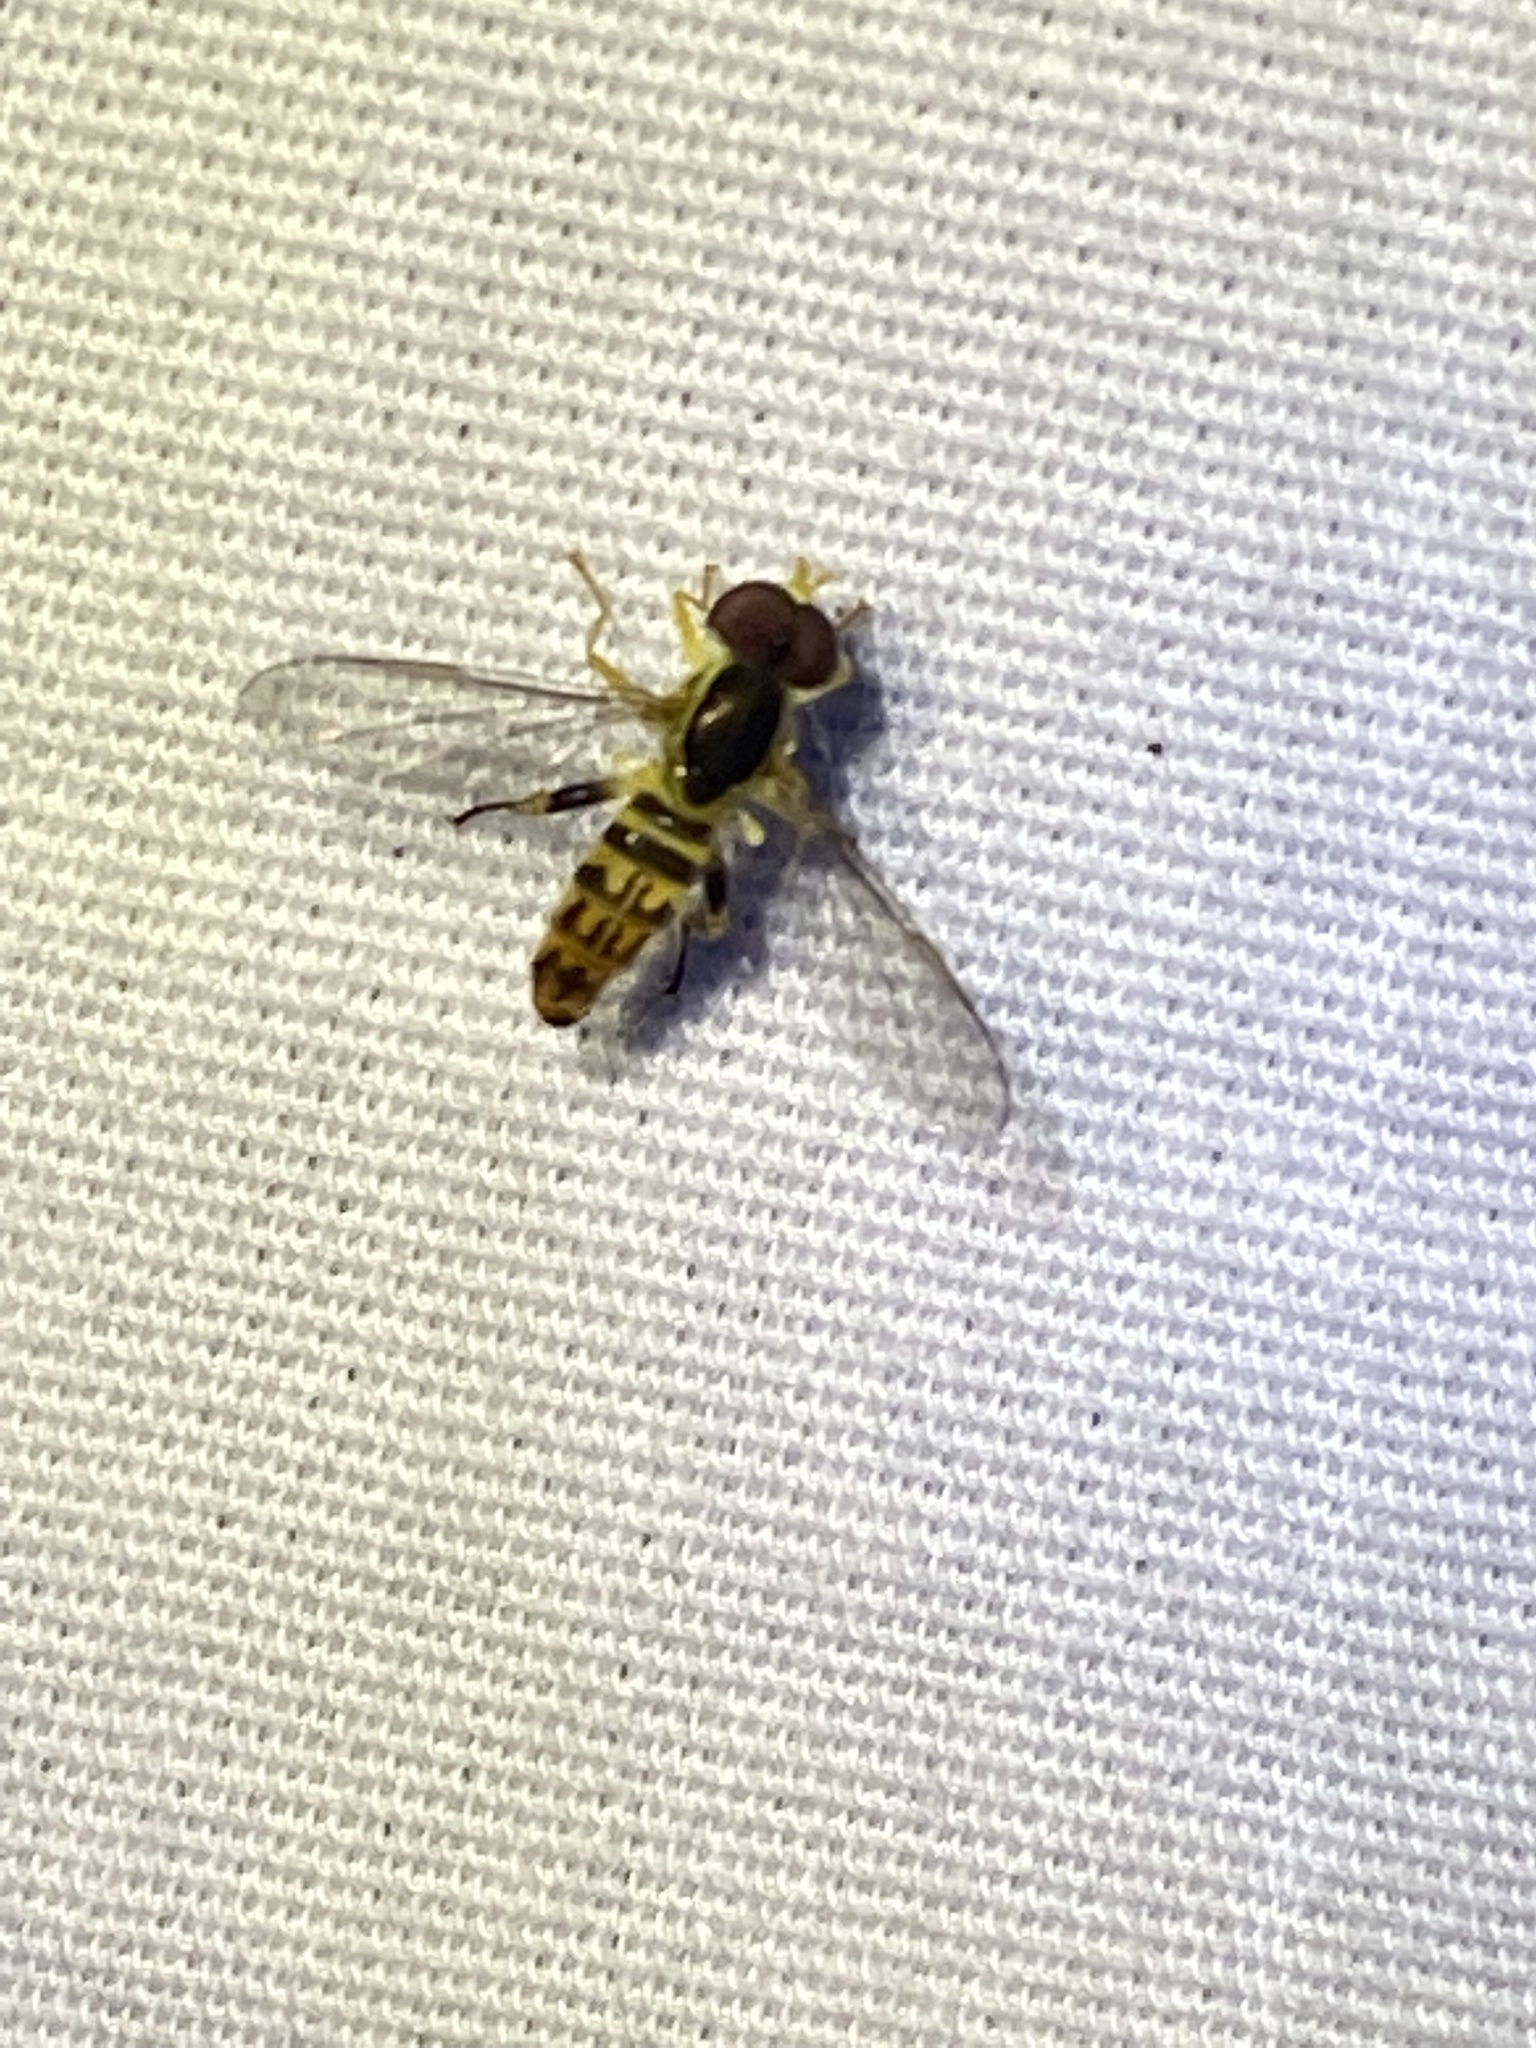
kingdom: Animalia
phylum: Arthropoda
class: Insecta
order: Diptera
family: Syrphidae
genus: Toxomerus
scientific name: Toxomerus geminatus
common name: Eastern calligrapher
